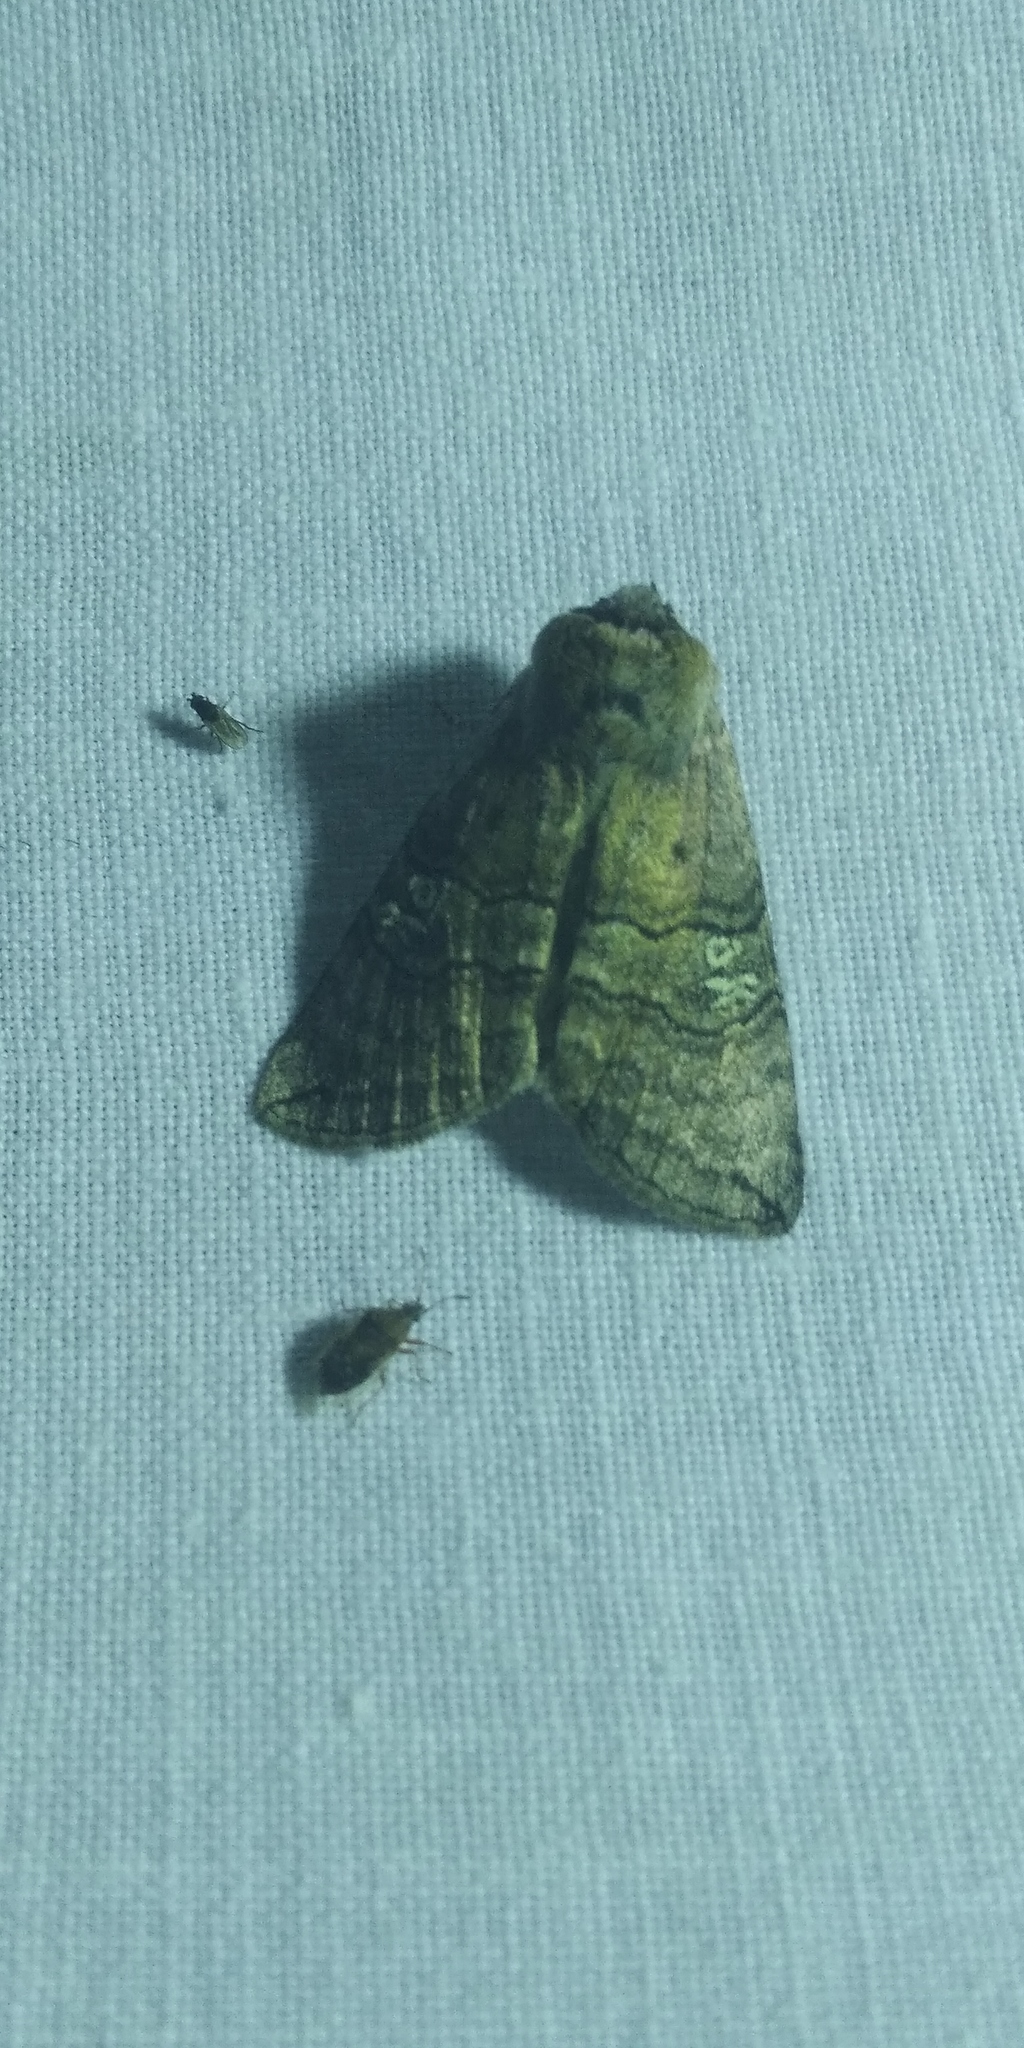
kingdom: Animalia
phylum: Arthropoda
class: Insecta
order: Lepidoptera
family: Drepanidae
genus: Tethea
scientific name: Tethea ocularis
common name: Figure of eighty
